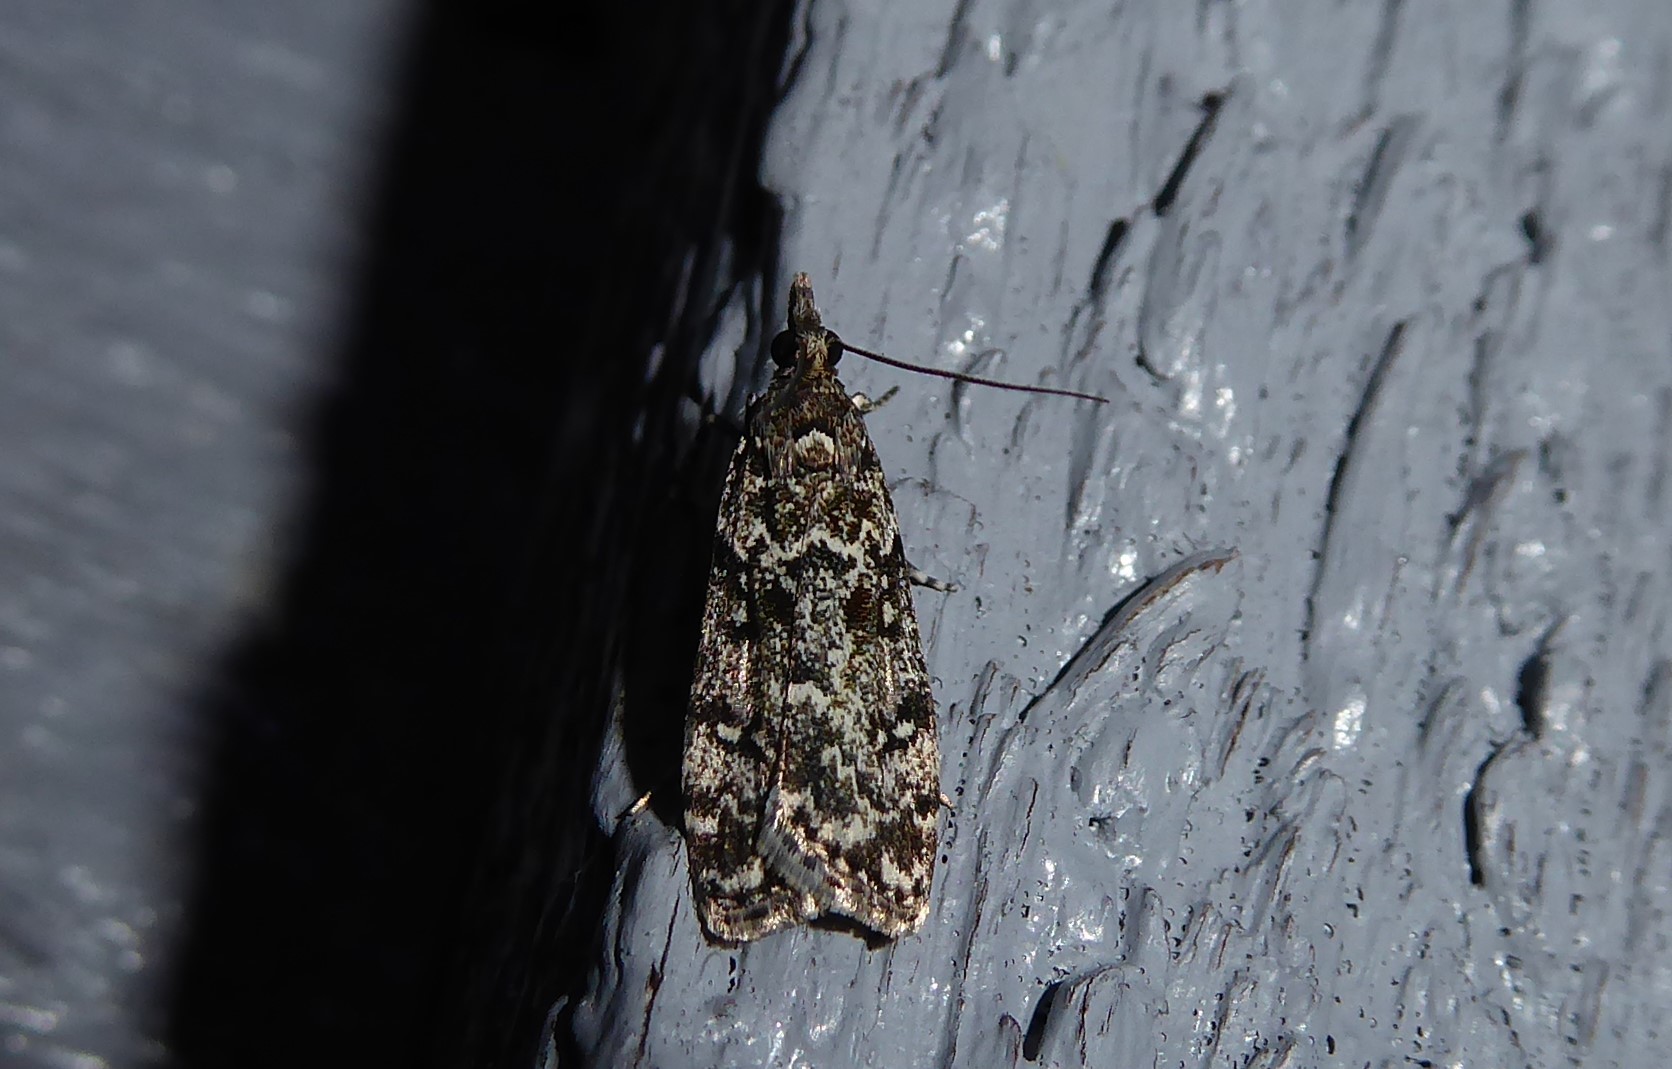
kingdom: Animalia
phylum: Arthropoda
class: Insecta
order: Lepidoptera
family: Crambidae
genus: Eudonia
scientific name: Eudonia philerga
